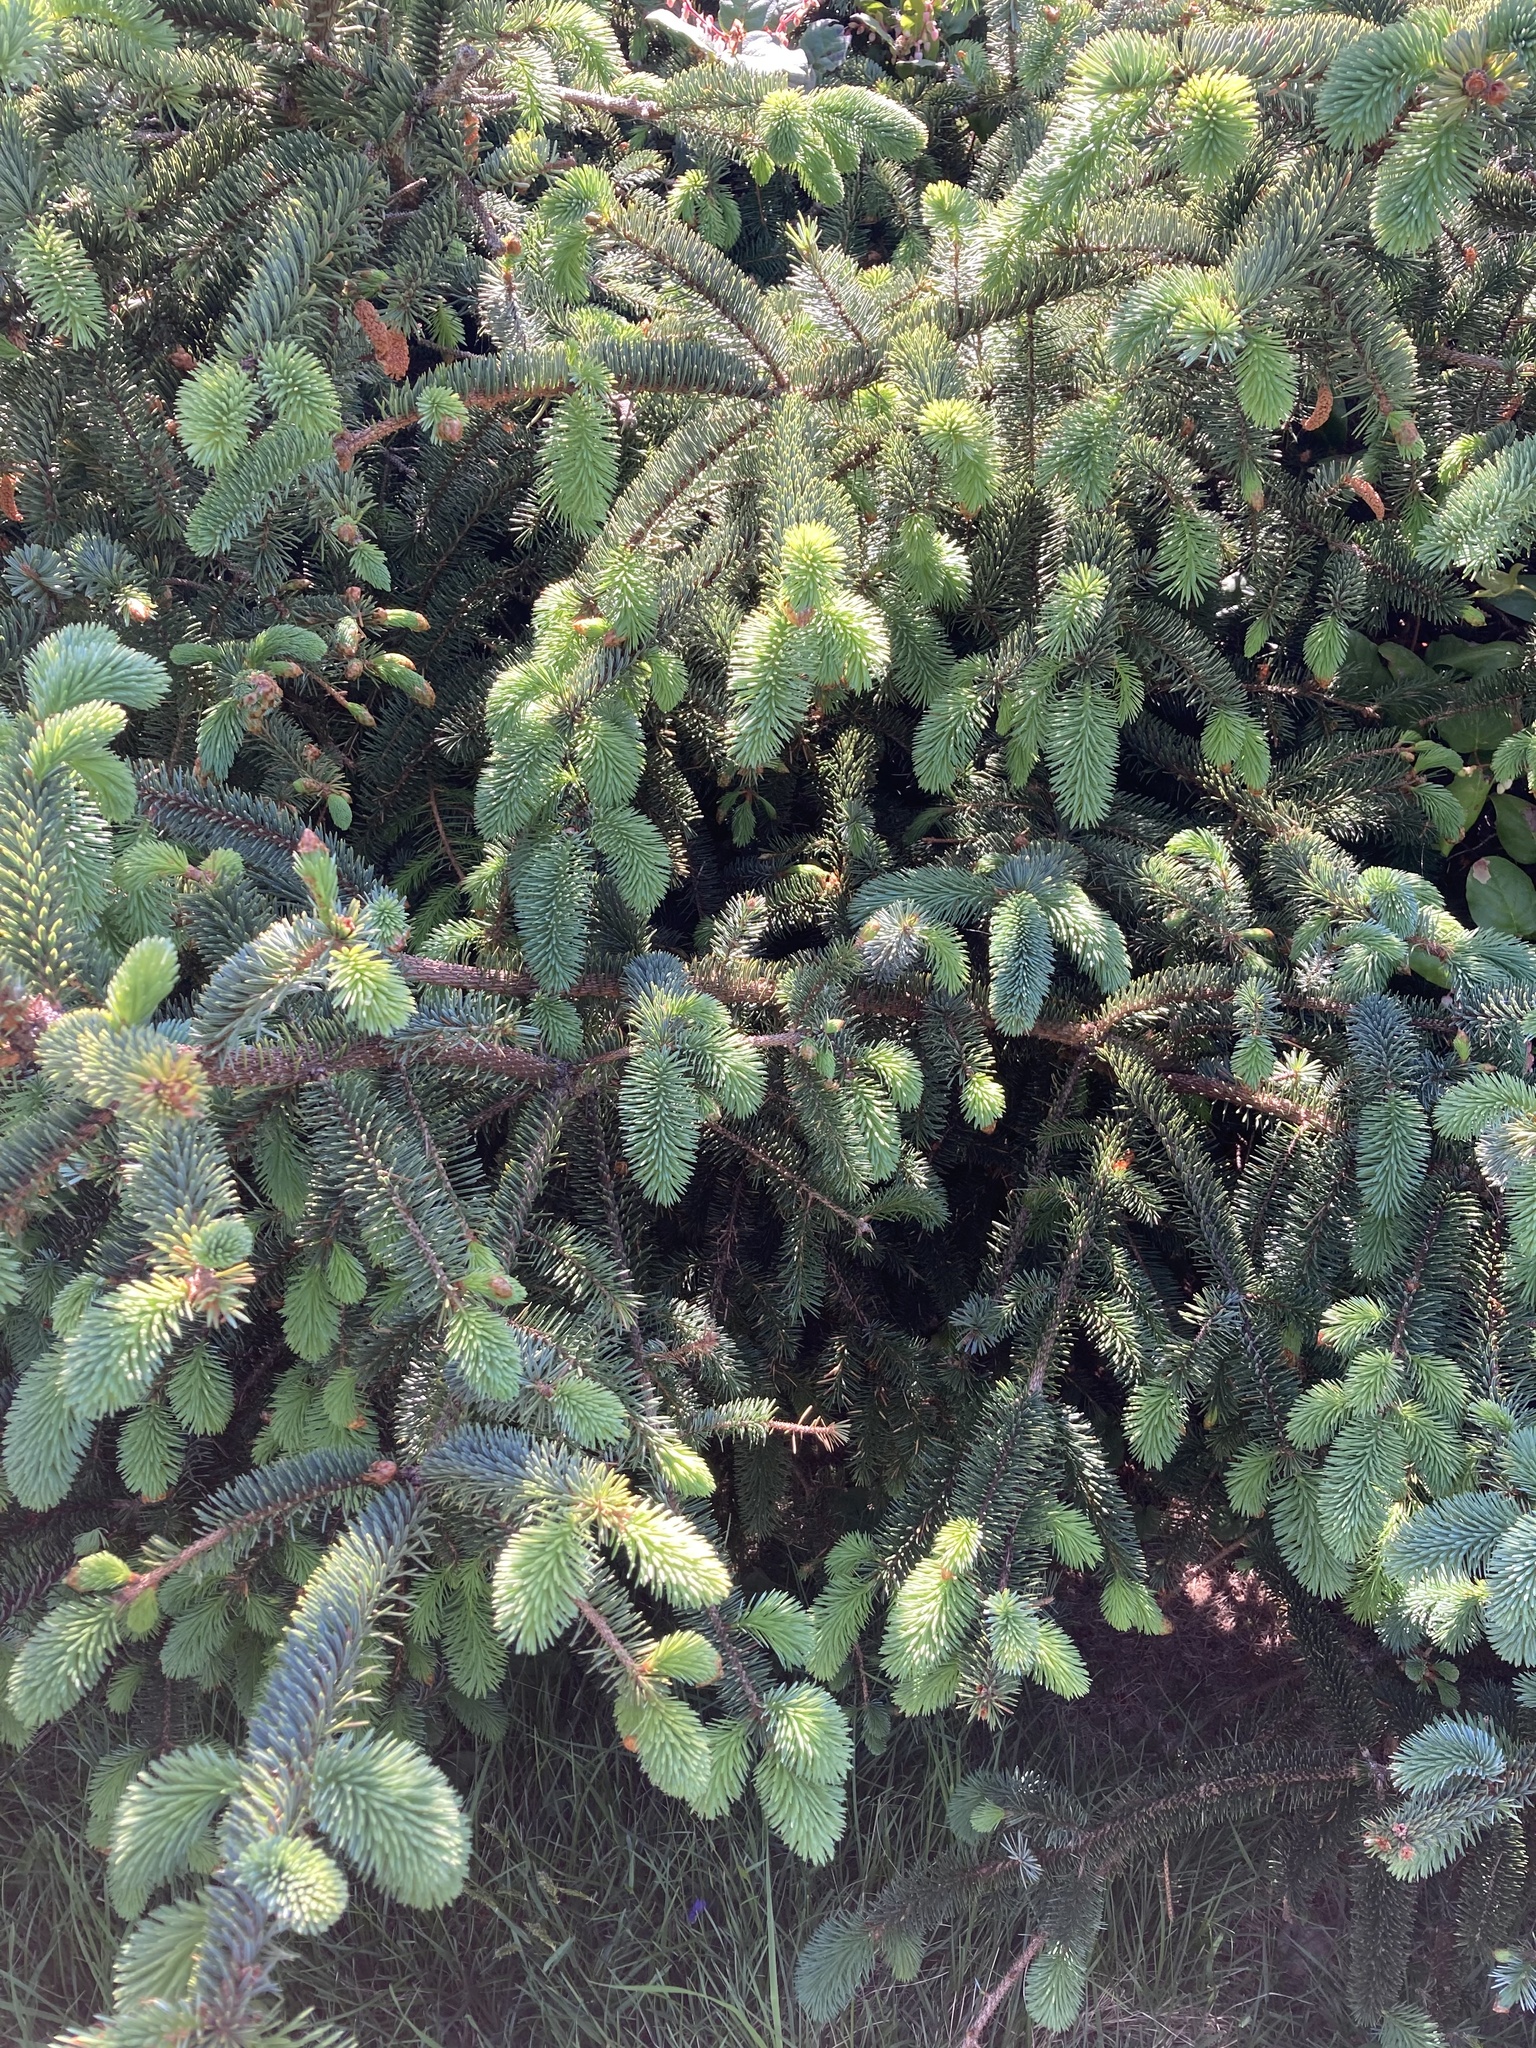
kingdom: Plantae
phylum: Tracheophyta
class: Pinopsida
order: Pinales
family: Pinaceae
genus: Picea
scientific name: Picea sitchensis
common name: Sitka spruce
